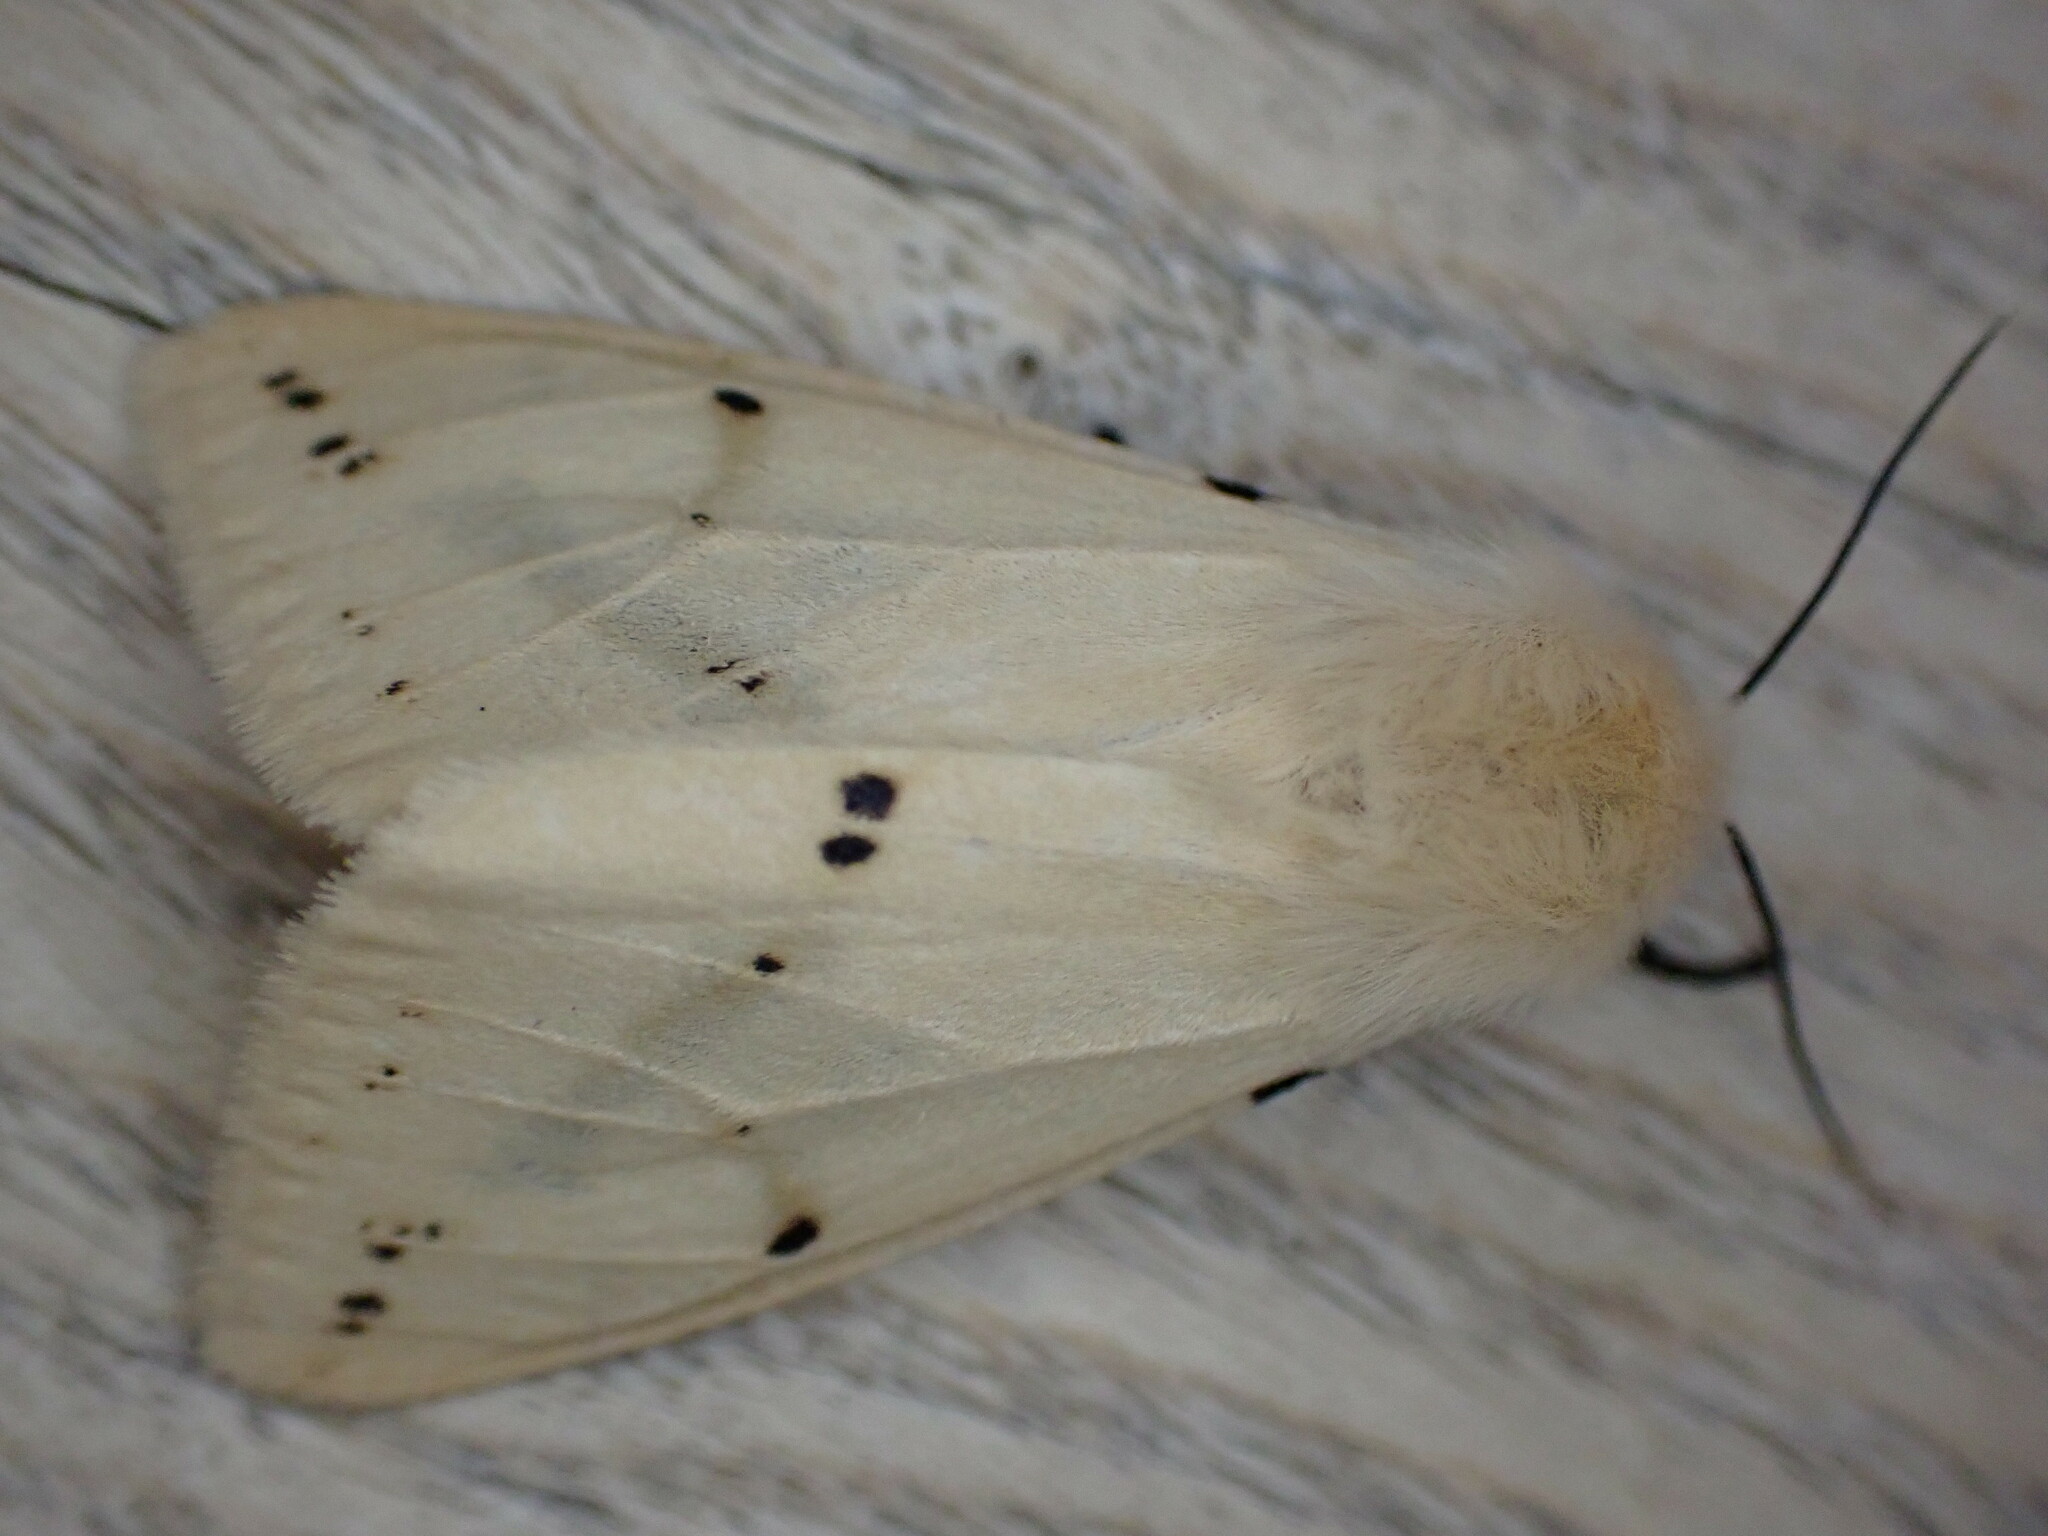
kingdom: Animalia
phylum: Arthropoda
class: Insecta
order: Lepidoptera
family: Erebidae
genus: Spilarctia
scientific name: Spilarctia lutea
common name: Buff ermine
